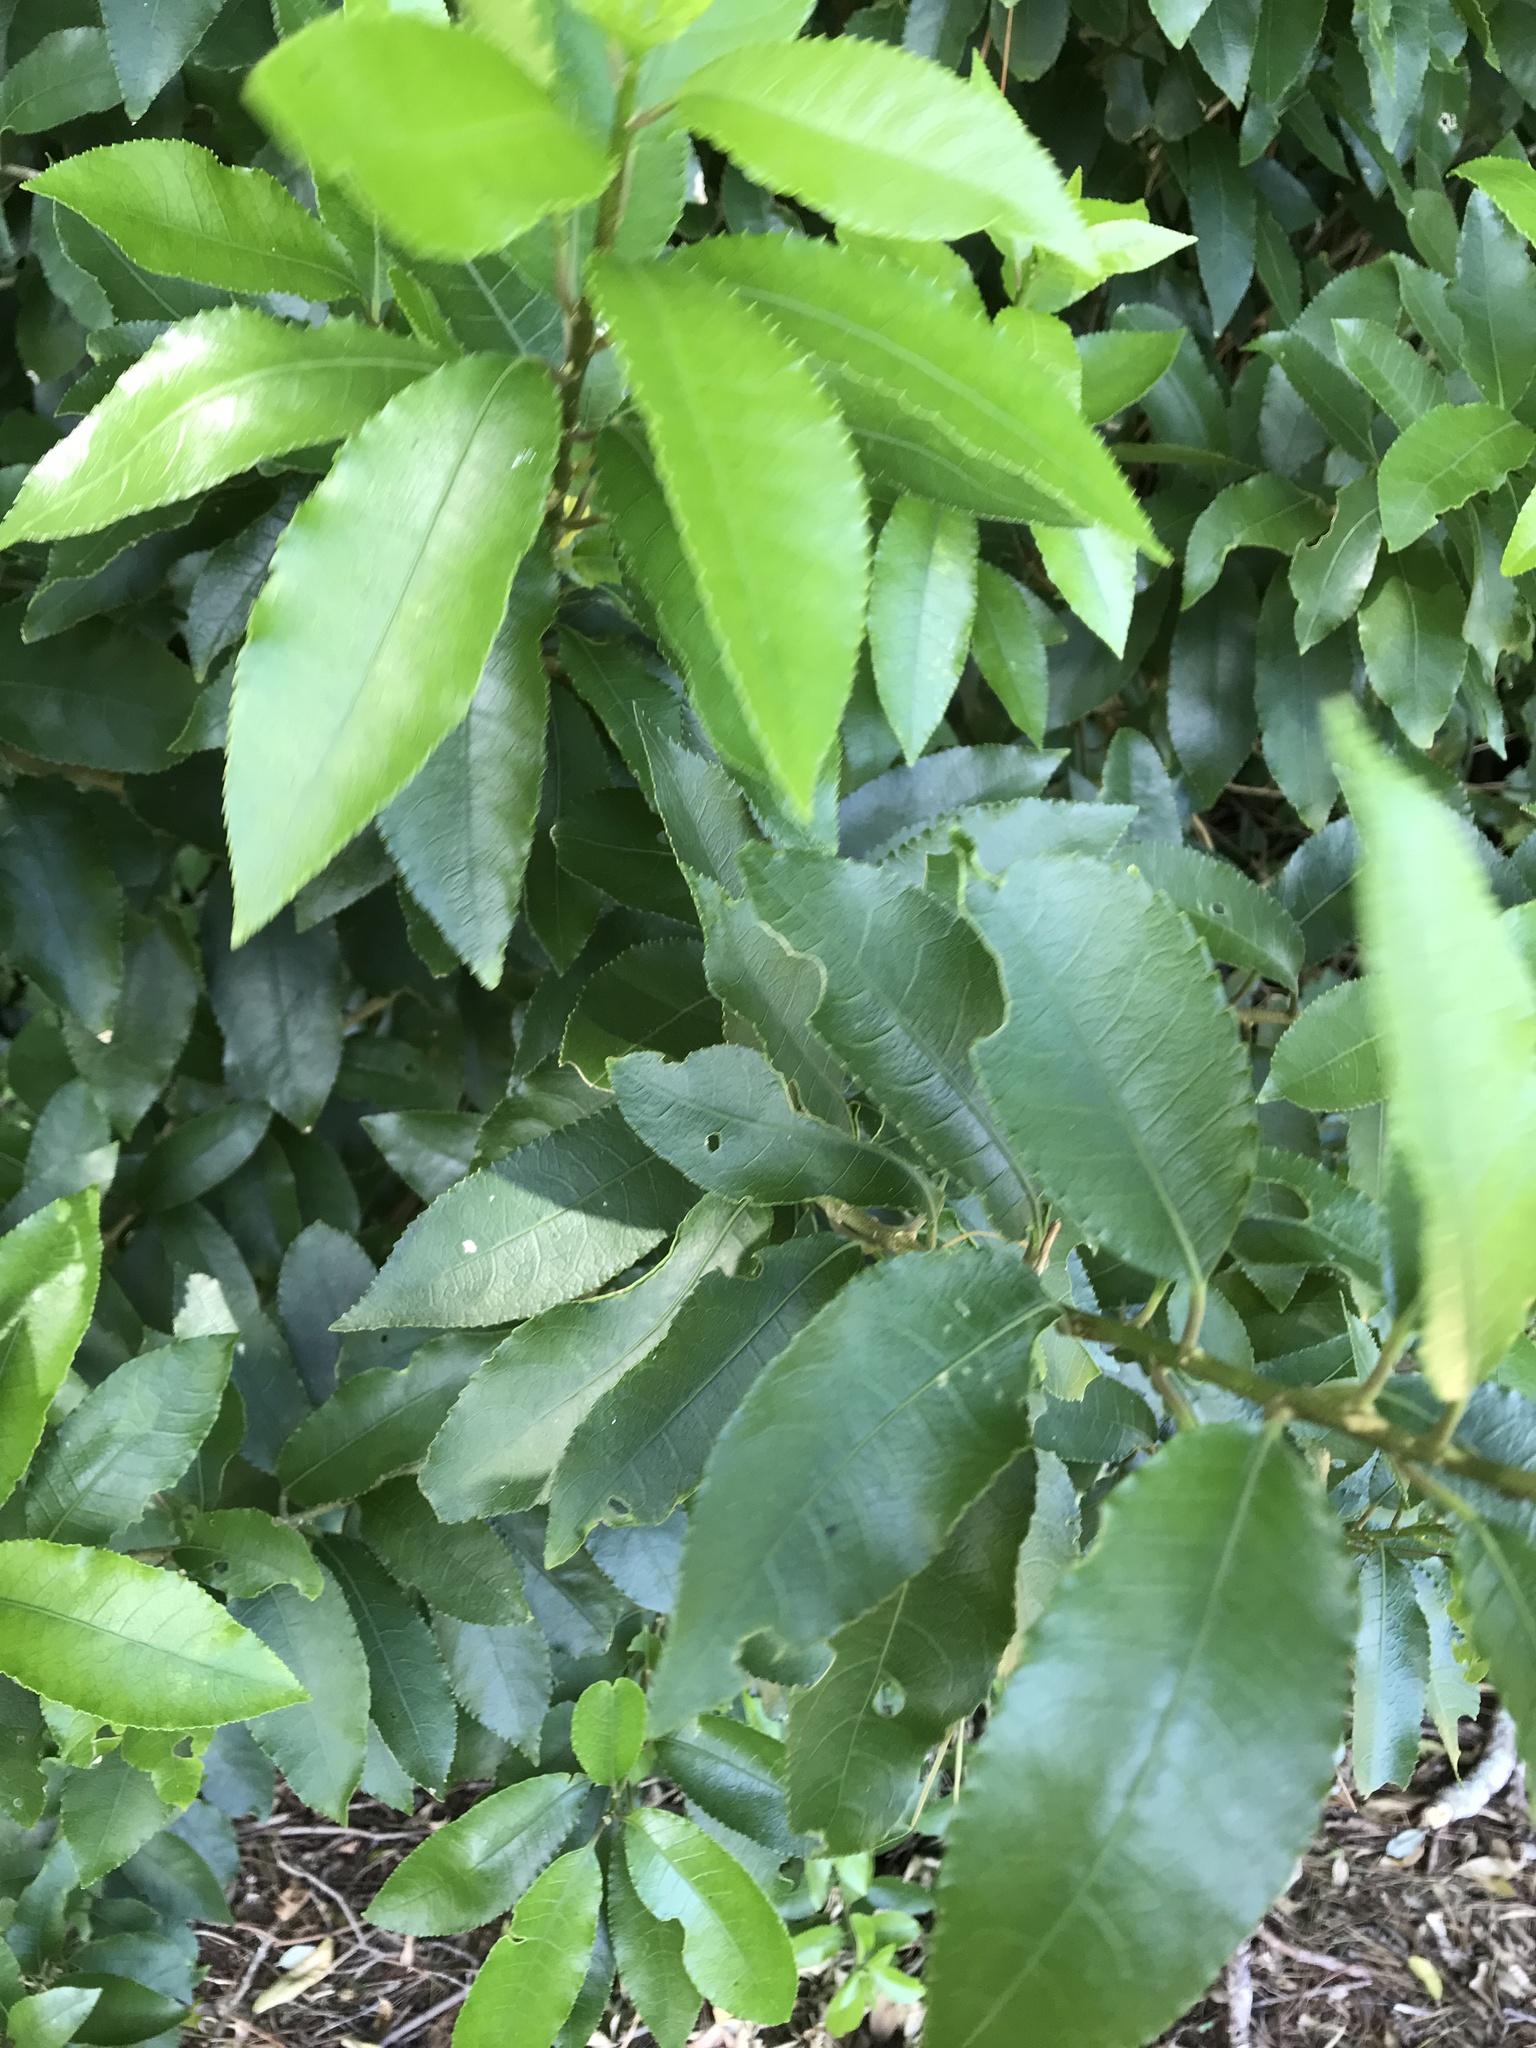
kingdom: Plantae
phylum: Tracheophyta
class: Magnoliopsida
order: Malpighiales
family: Violaceae
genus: Melicytus
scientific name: Melicytus ramiflorus
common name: Mahoe
